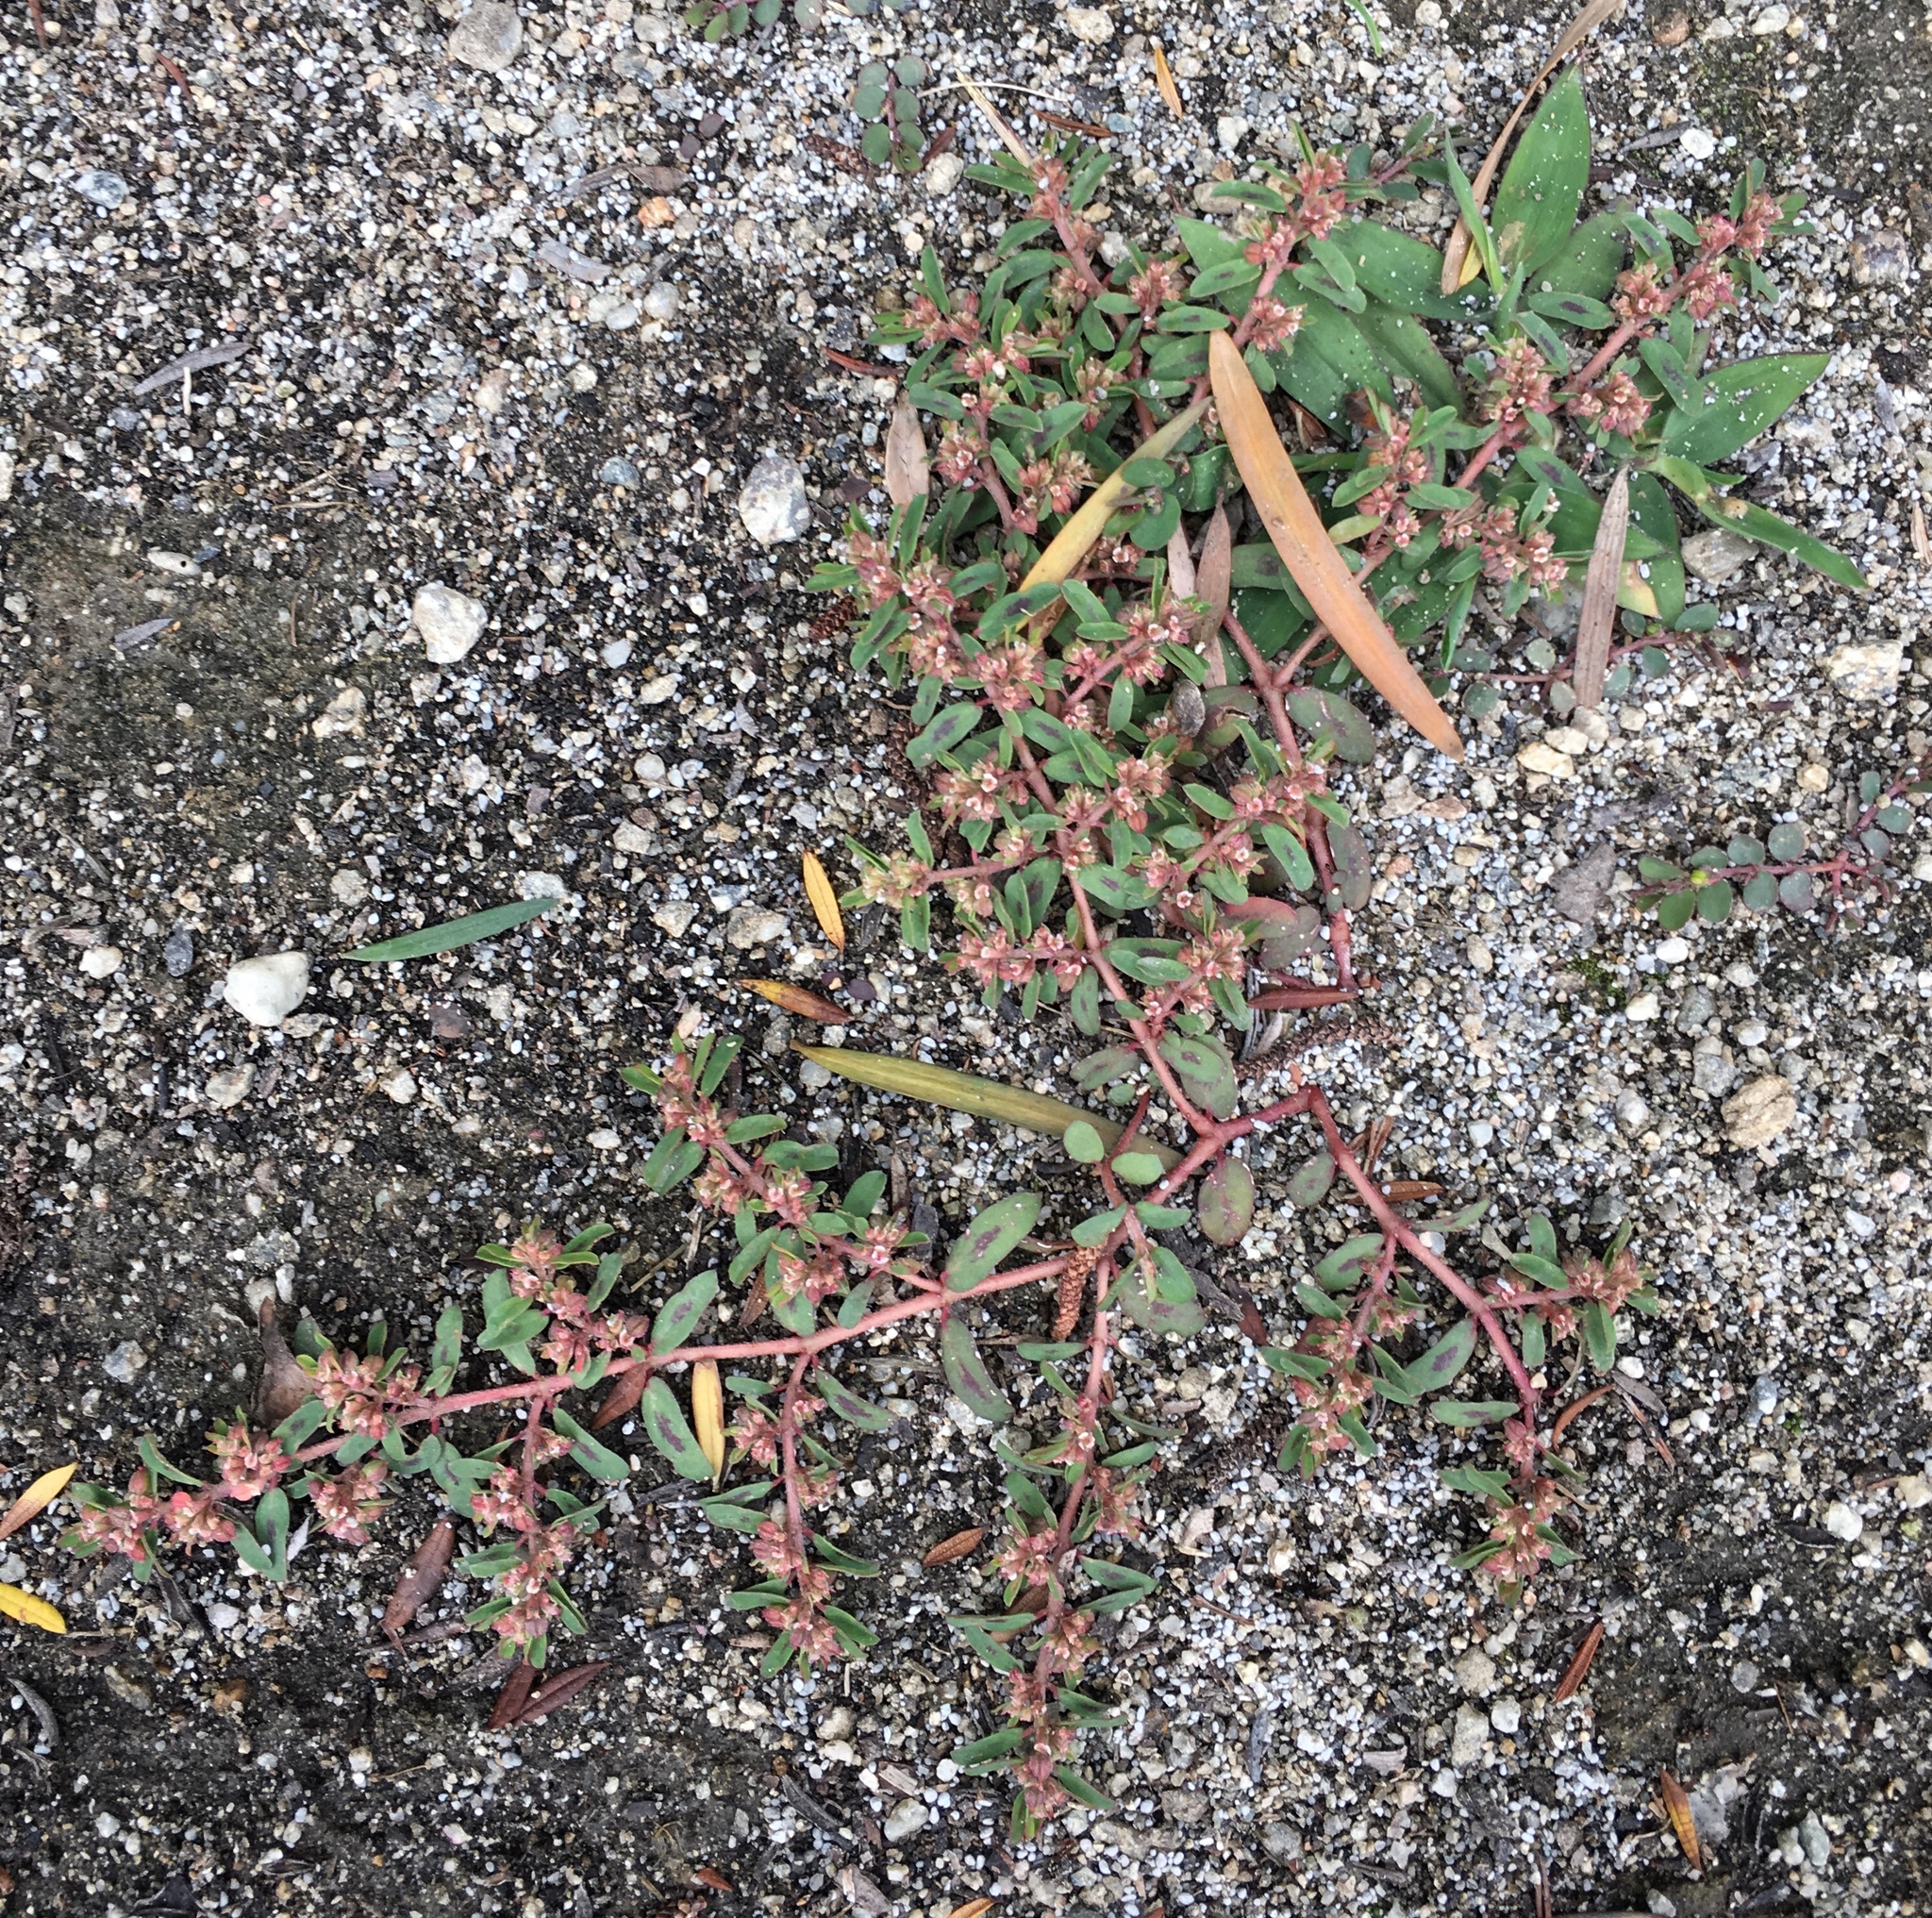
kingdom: Plantae
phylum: Tracheophyta
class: Magnoliopsida
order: Malpighiales
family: Euphorbiaceae
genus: Euphorbia
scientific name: Euphorbia maculata
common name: Spotted spurge
